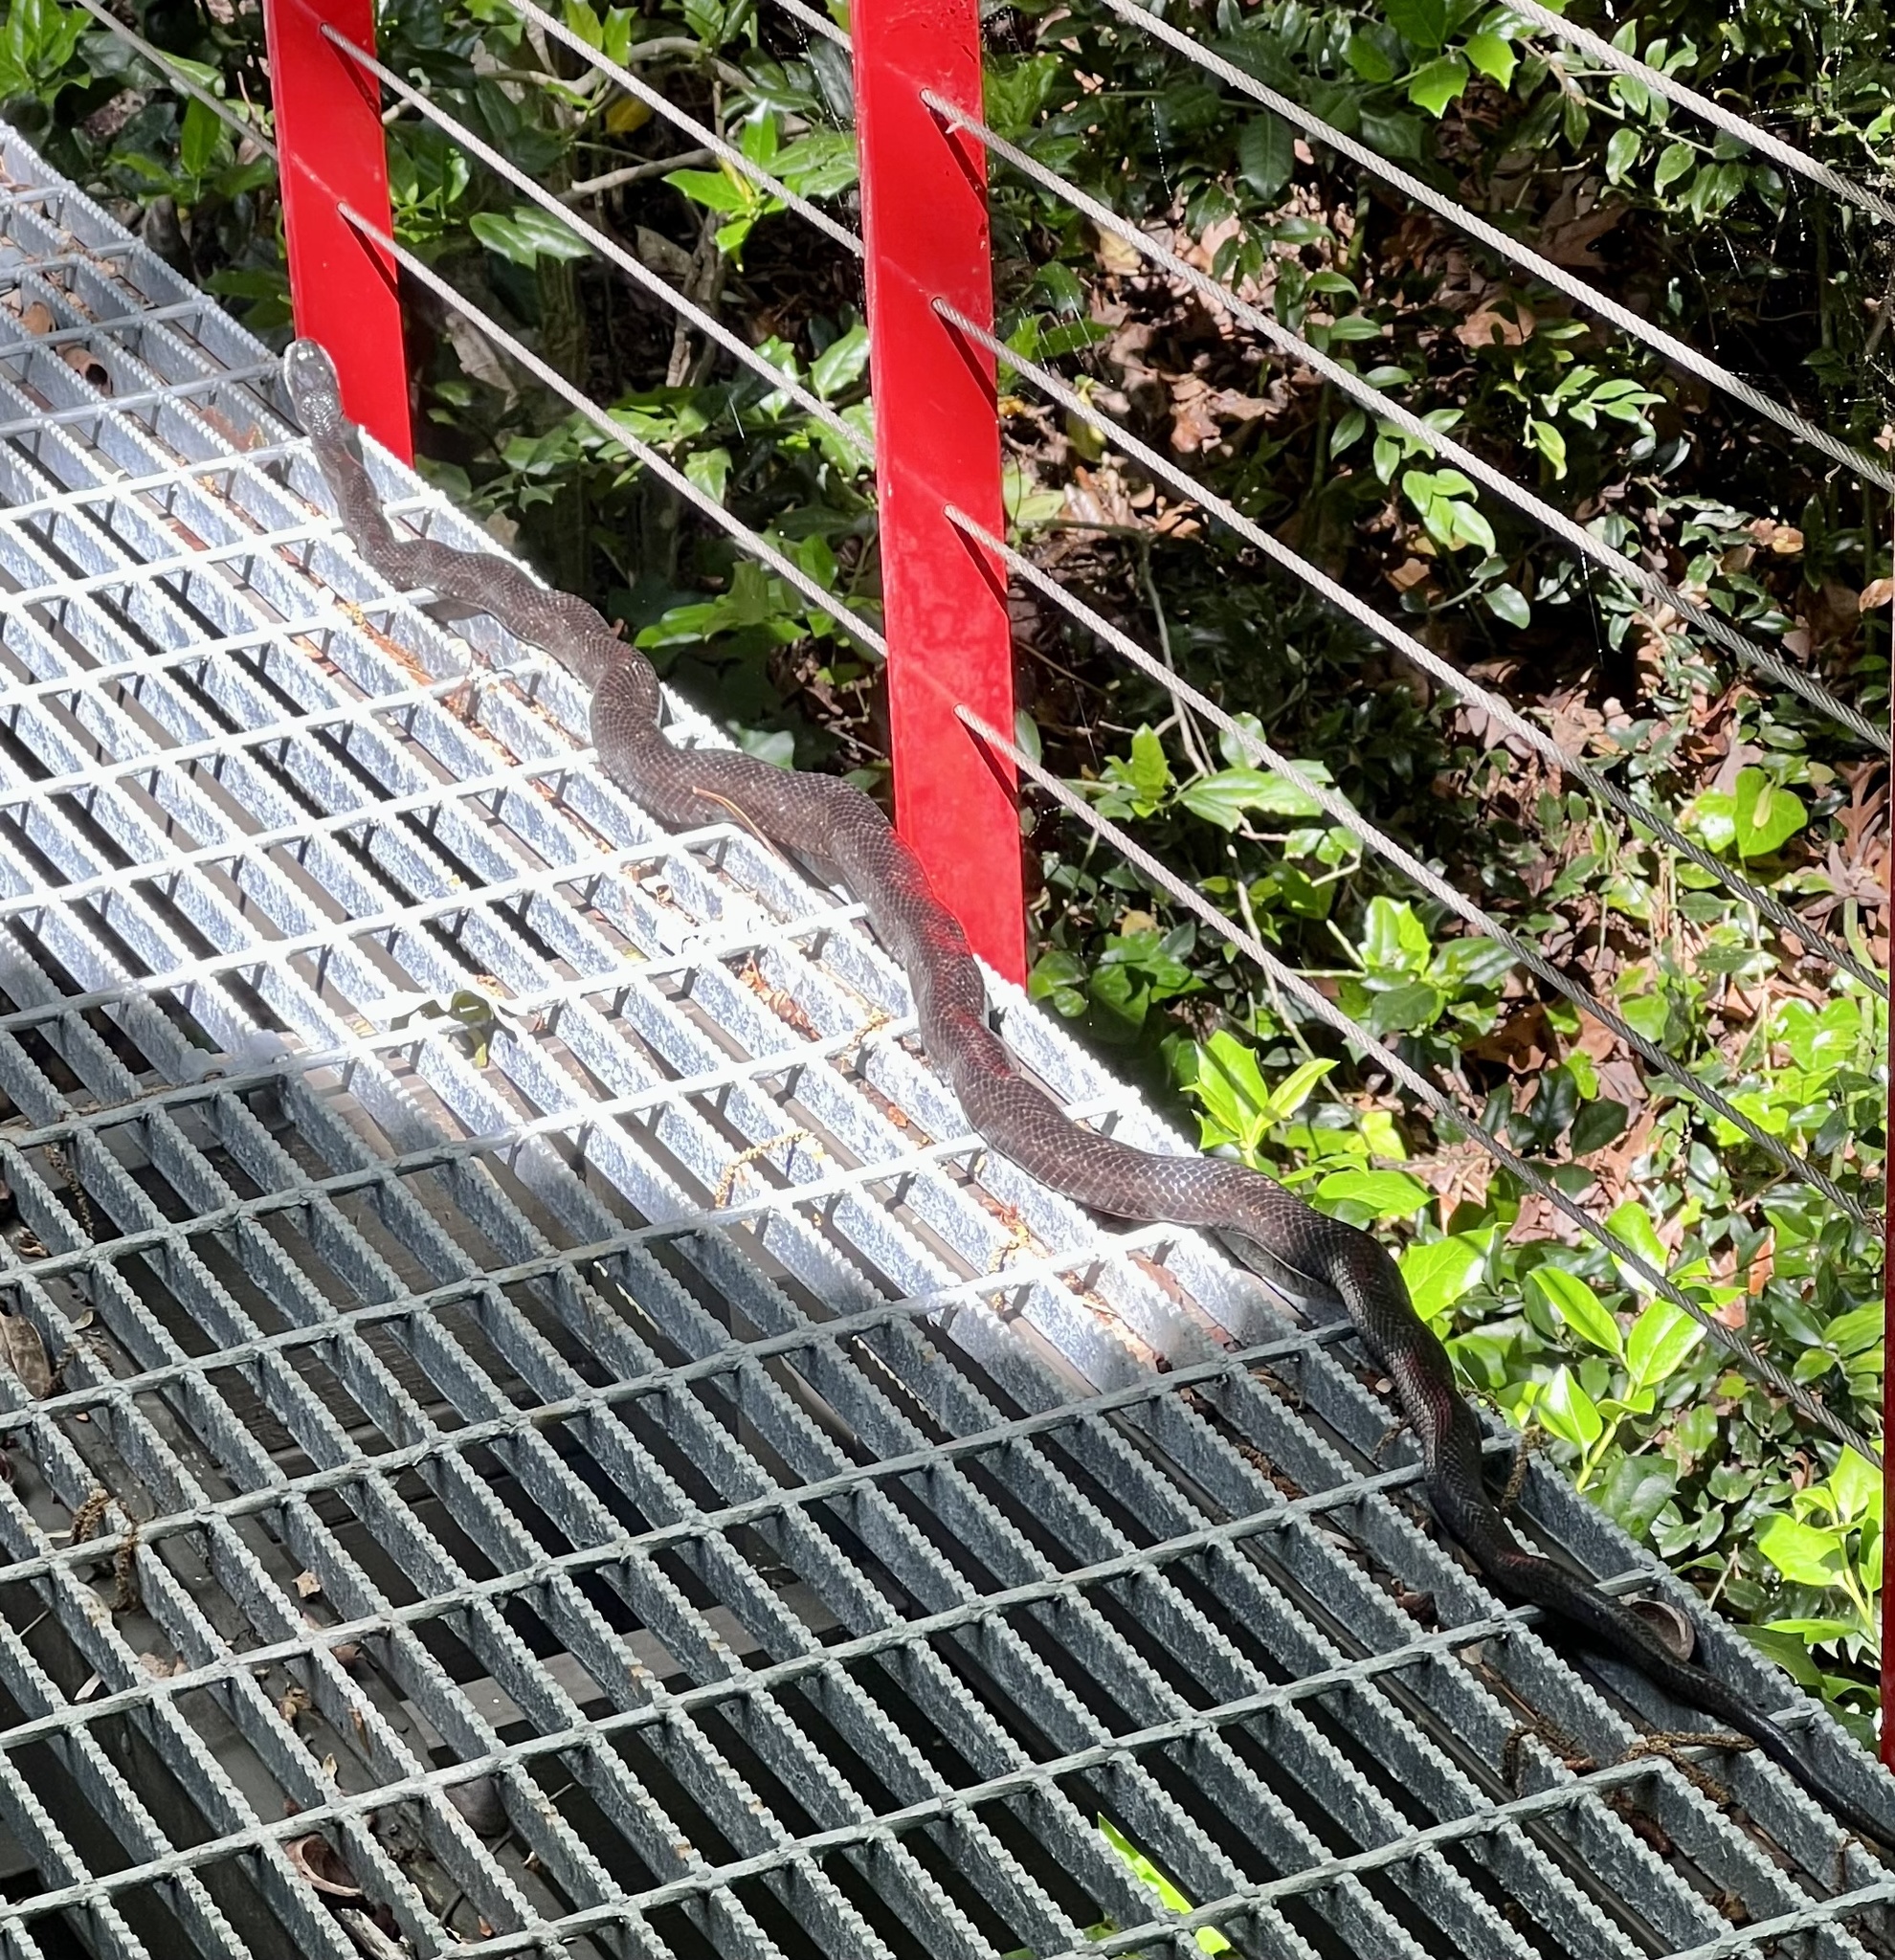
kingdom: Animalia
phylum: Chordata
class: Squamata
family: Colubridae
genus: Pantherophis
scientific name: Pantherophis alleghaniensis
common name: Eastern rat snake
